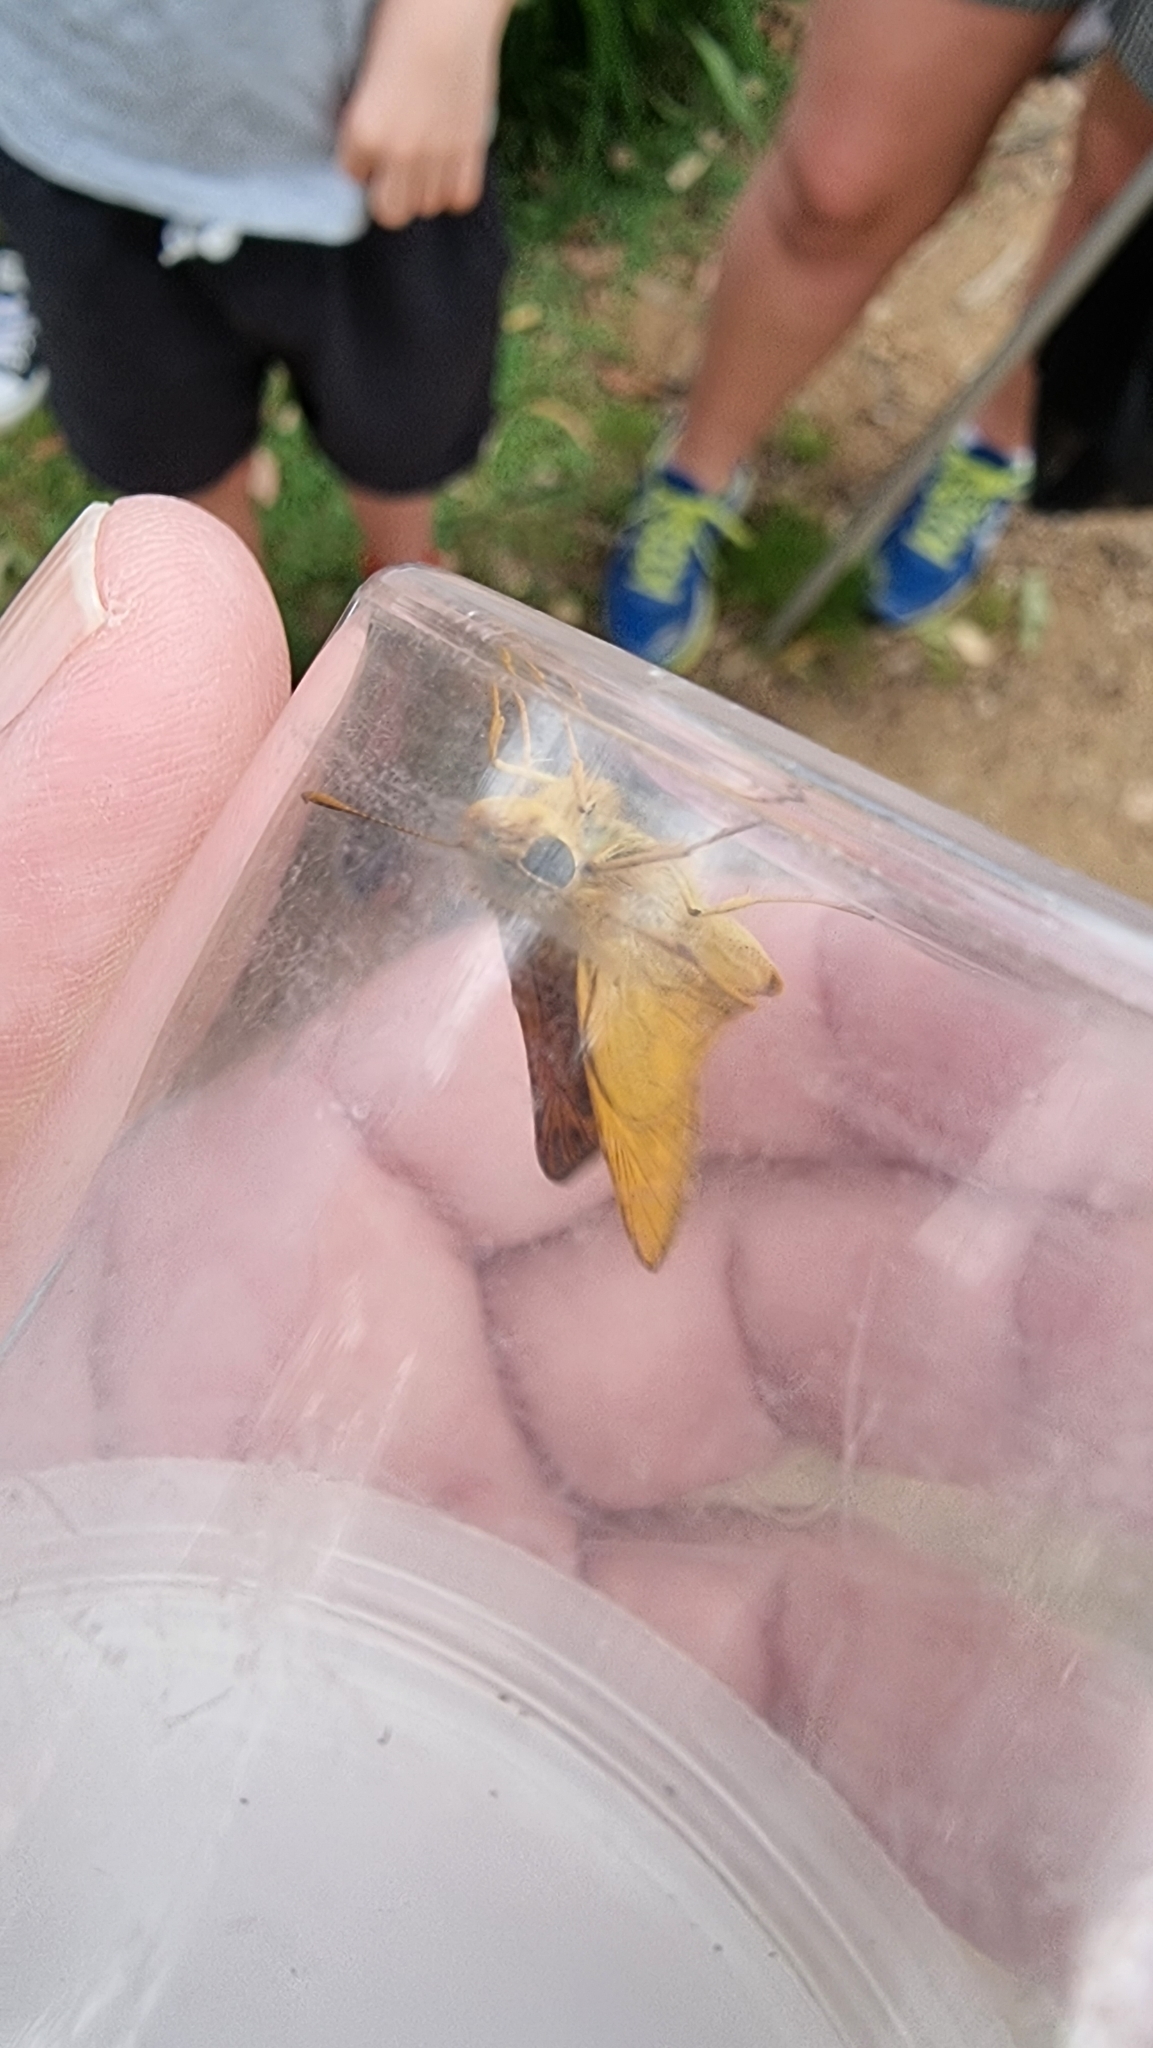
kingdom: Animalia
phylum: Arthropoda
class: Insecta
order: Lepidoptera
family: Hesperiidae
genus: Telicota
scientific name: Telicota colon
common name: Pale palm dart
